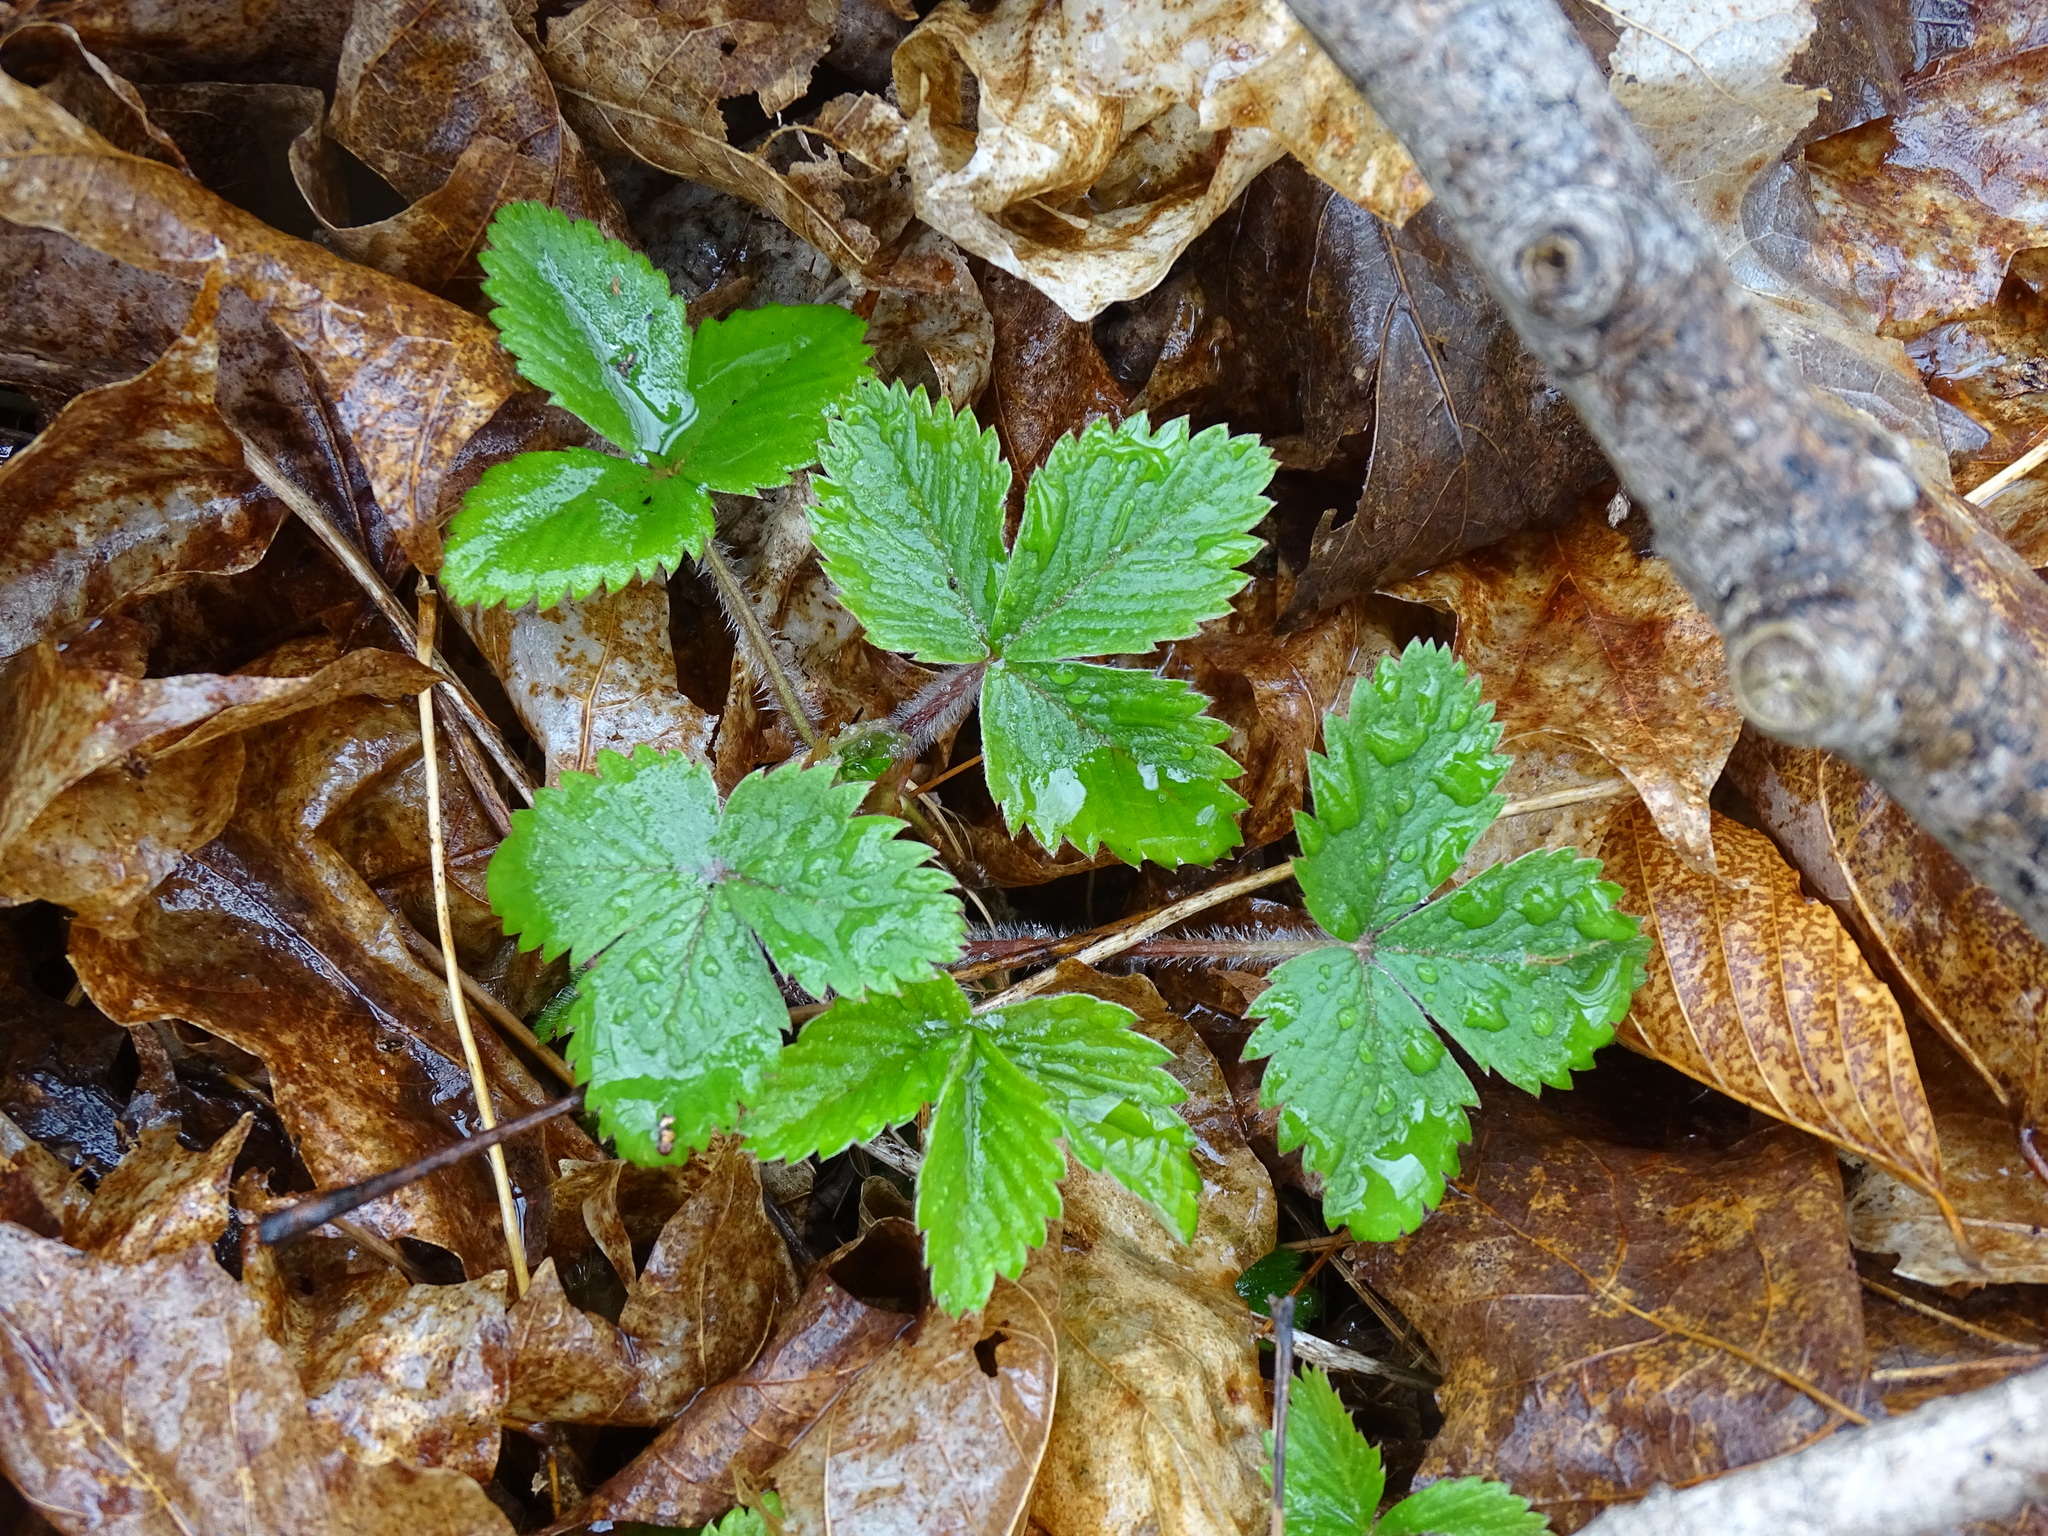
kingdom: Plantae
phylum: Tracheophyta
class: Magnoliopsida
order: Rosales
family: Rosaceae
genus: Fragaria
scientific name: Fragaria virginiana
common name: Thickleaved wild strawberry
